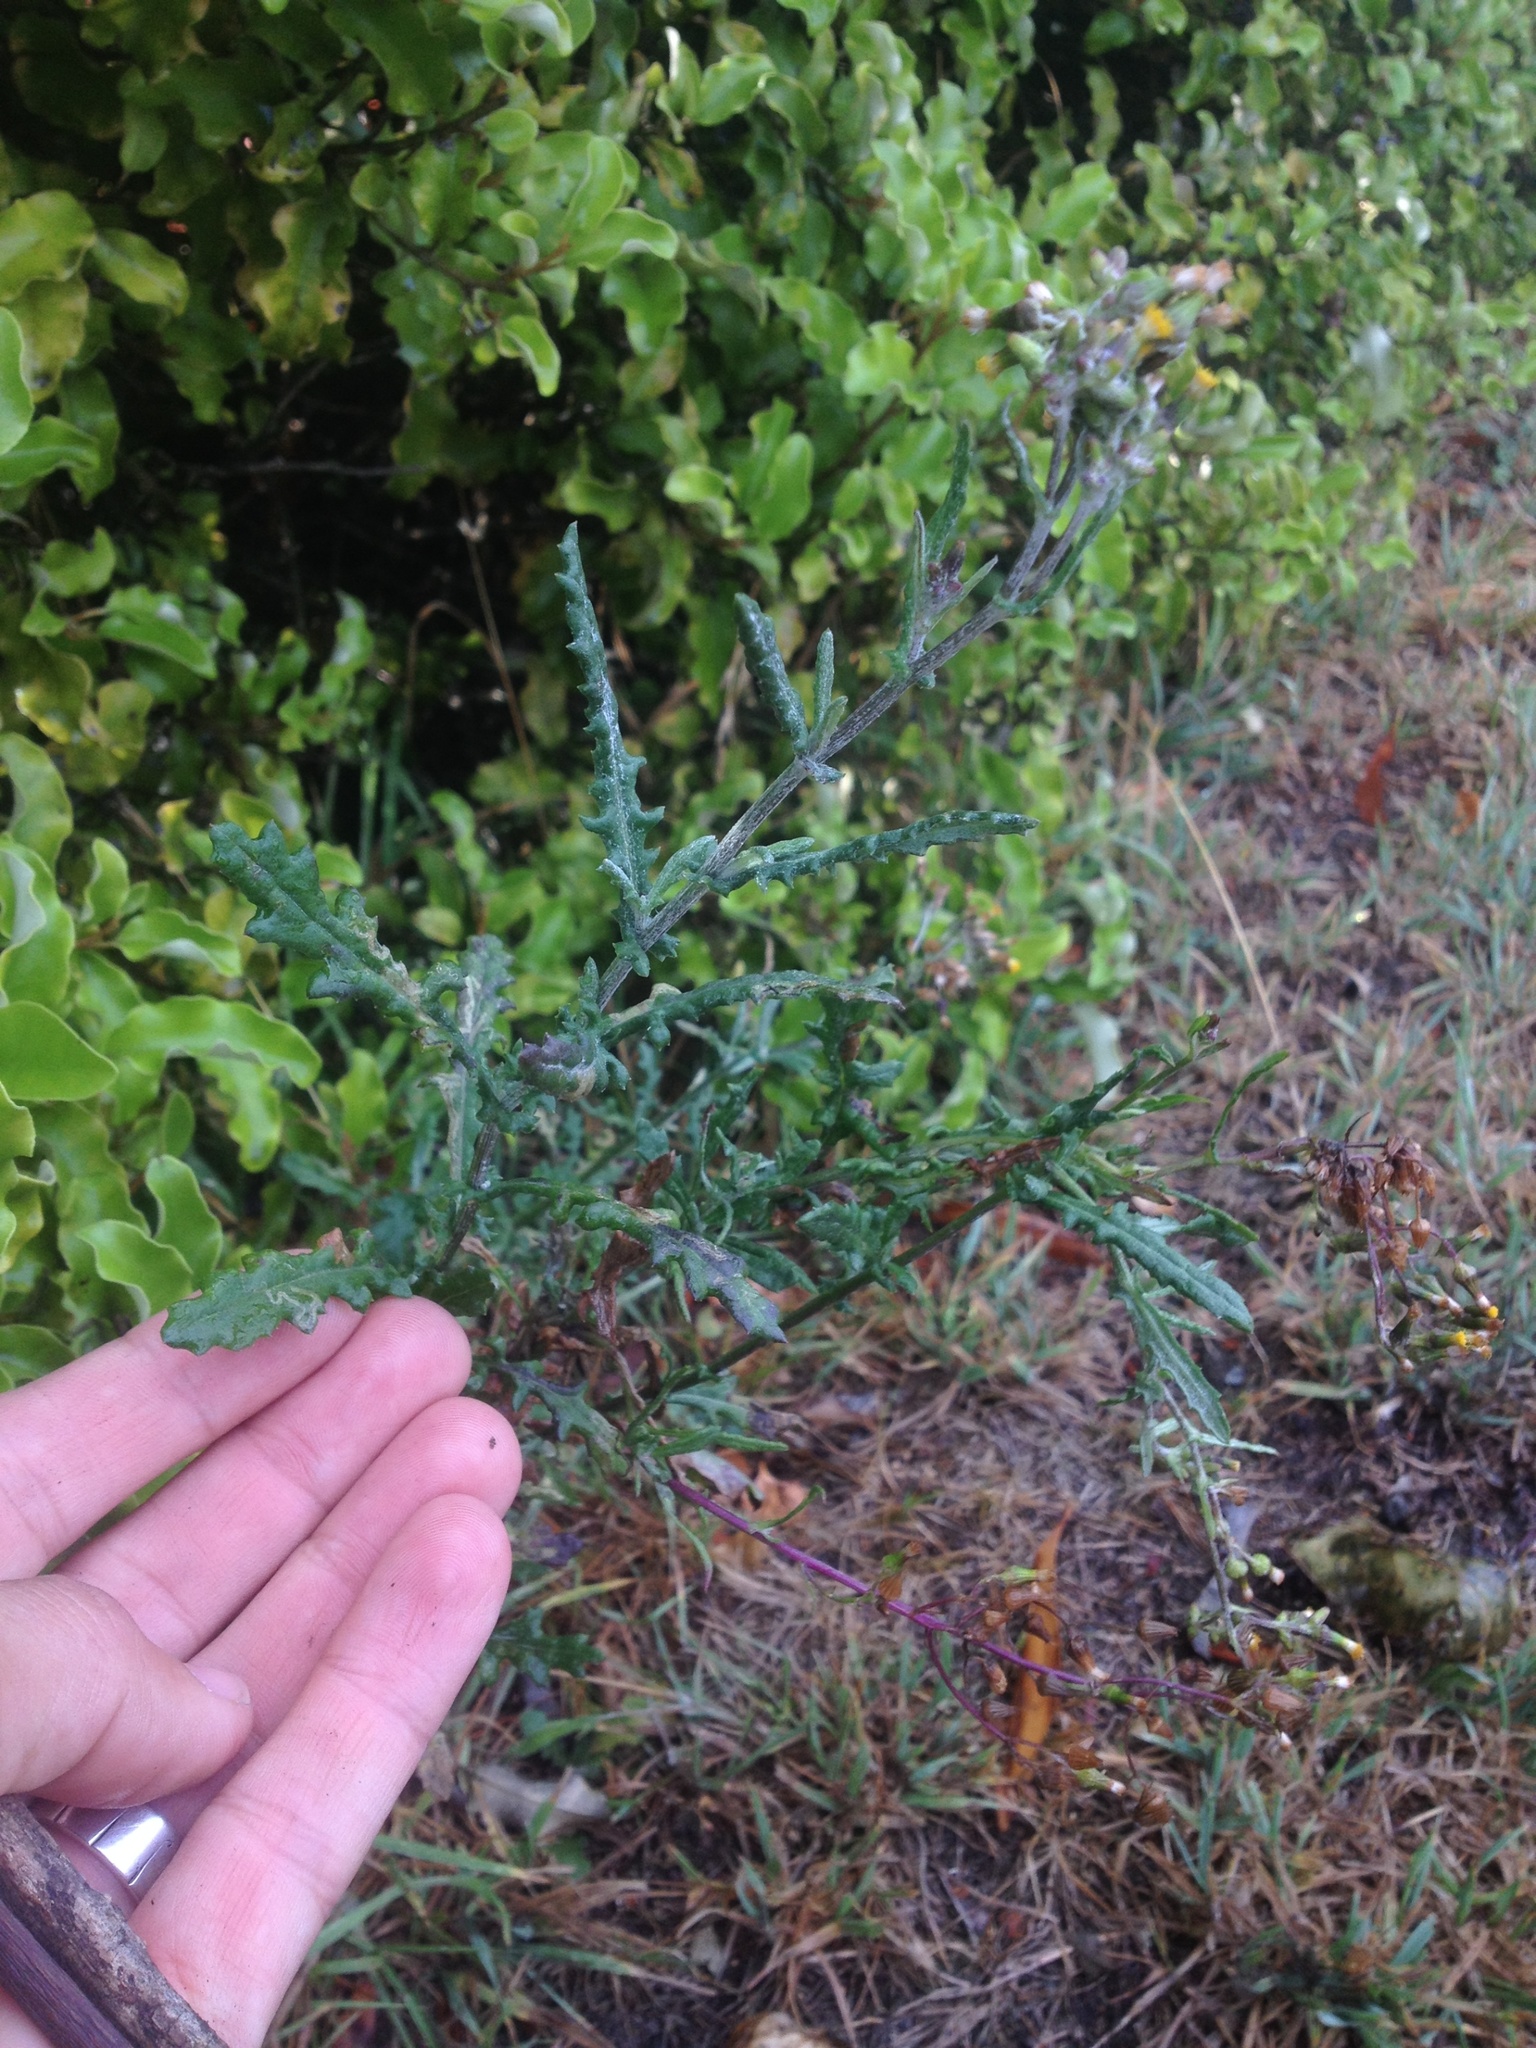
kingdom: Plantae
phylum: Tracheophyta
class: Magnoliopsida
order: Asterales
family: Asteraceae
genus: Senecio
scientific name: Senecio glomeratus
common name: Cutleaf burnweed
